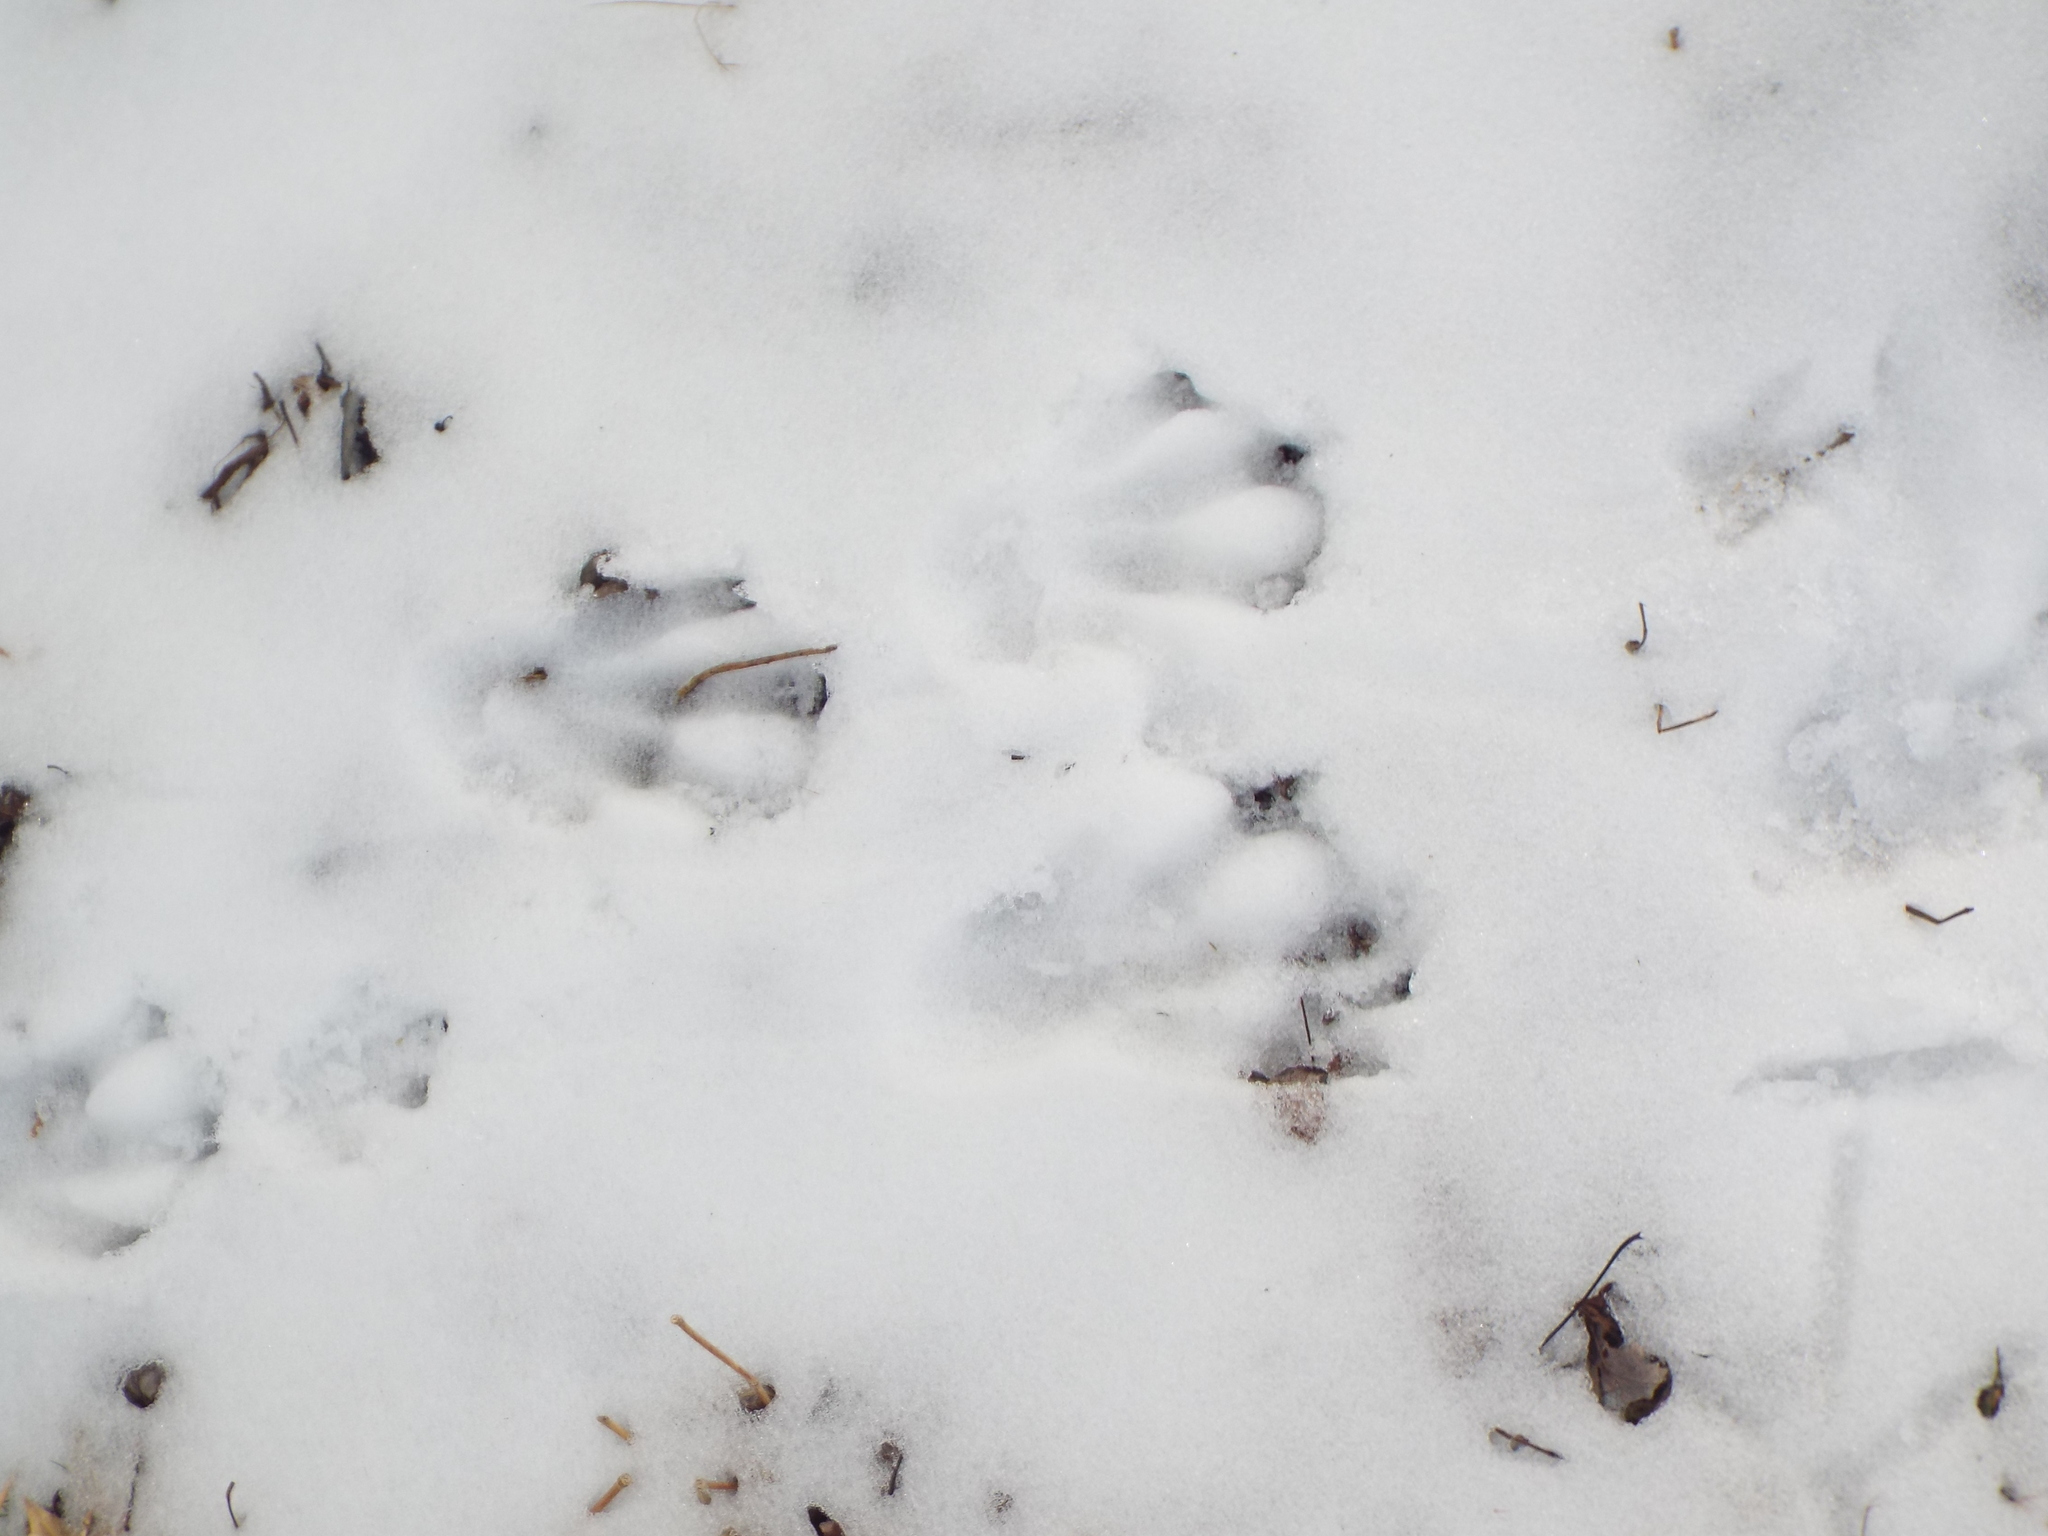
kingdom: Animalia
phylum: Chordata
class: Mammalia
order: Rodentia
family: Castoridae
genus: Castor
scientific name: Castor canadensis
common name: American beaver
